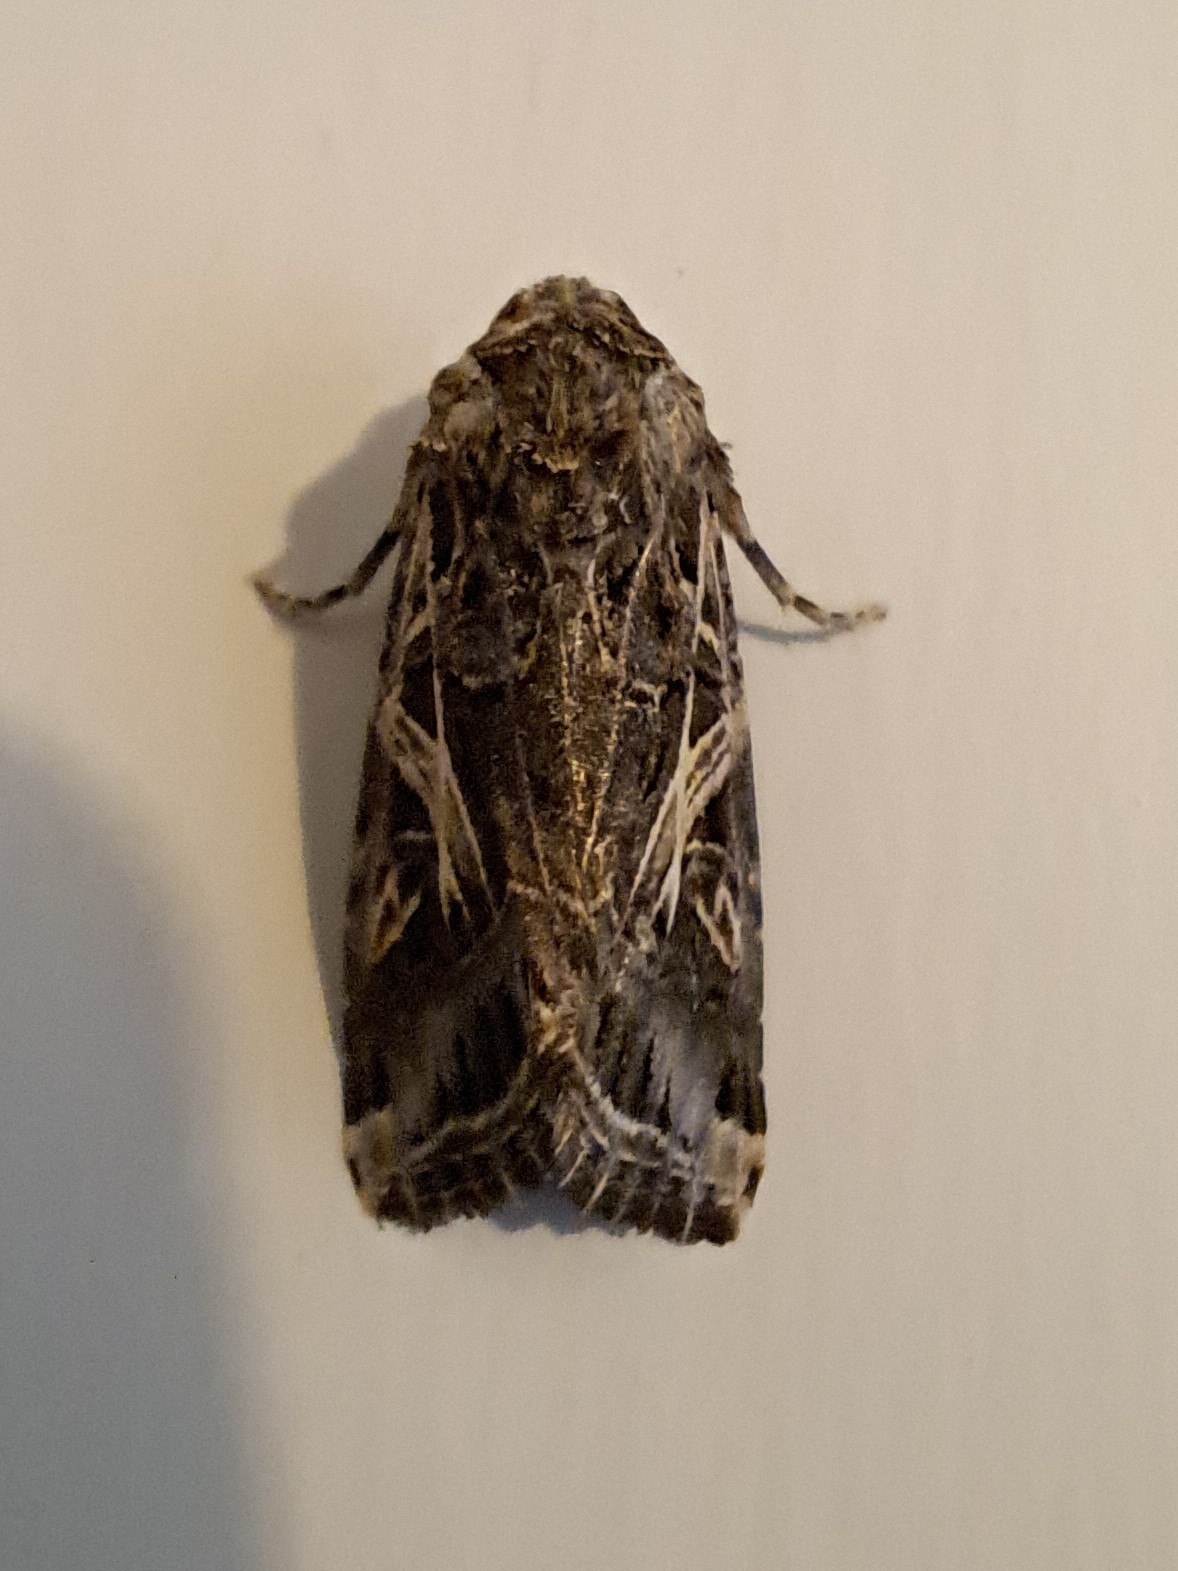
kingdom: Animalia
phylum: Arthropoda
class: Insecta
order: Lepidoptera
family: Noctuidae
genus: Spodoptera
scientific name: Spodoptera litura
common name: Asian cotton leafworm
